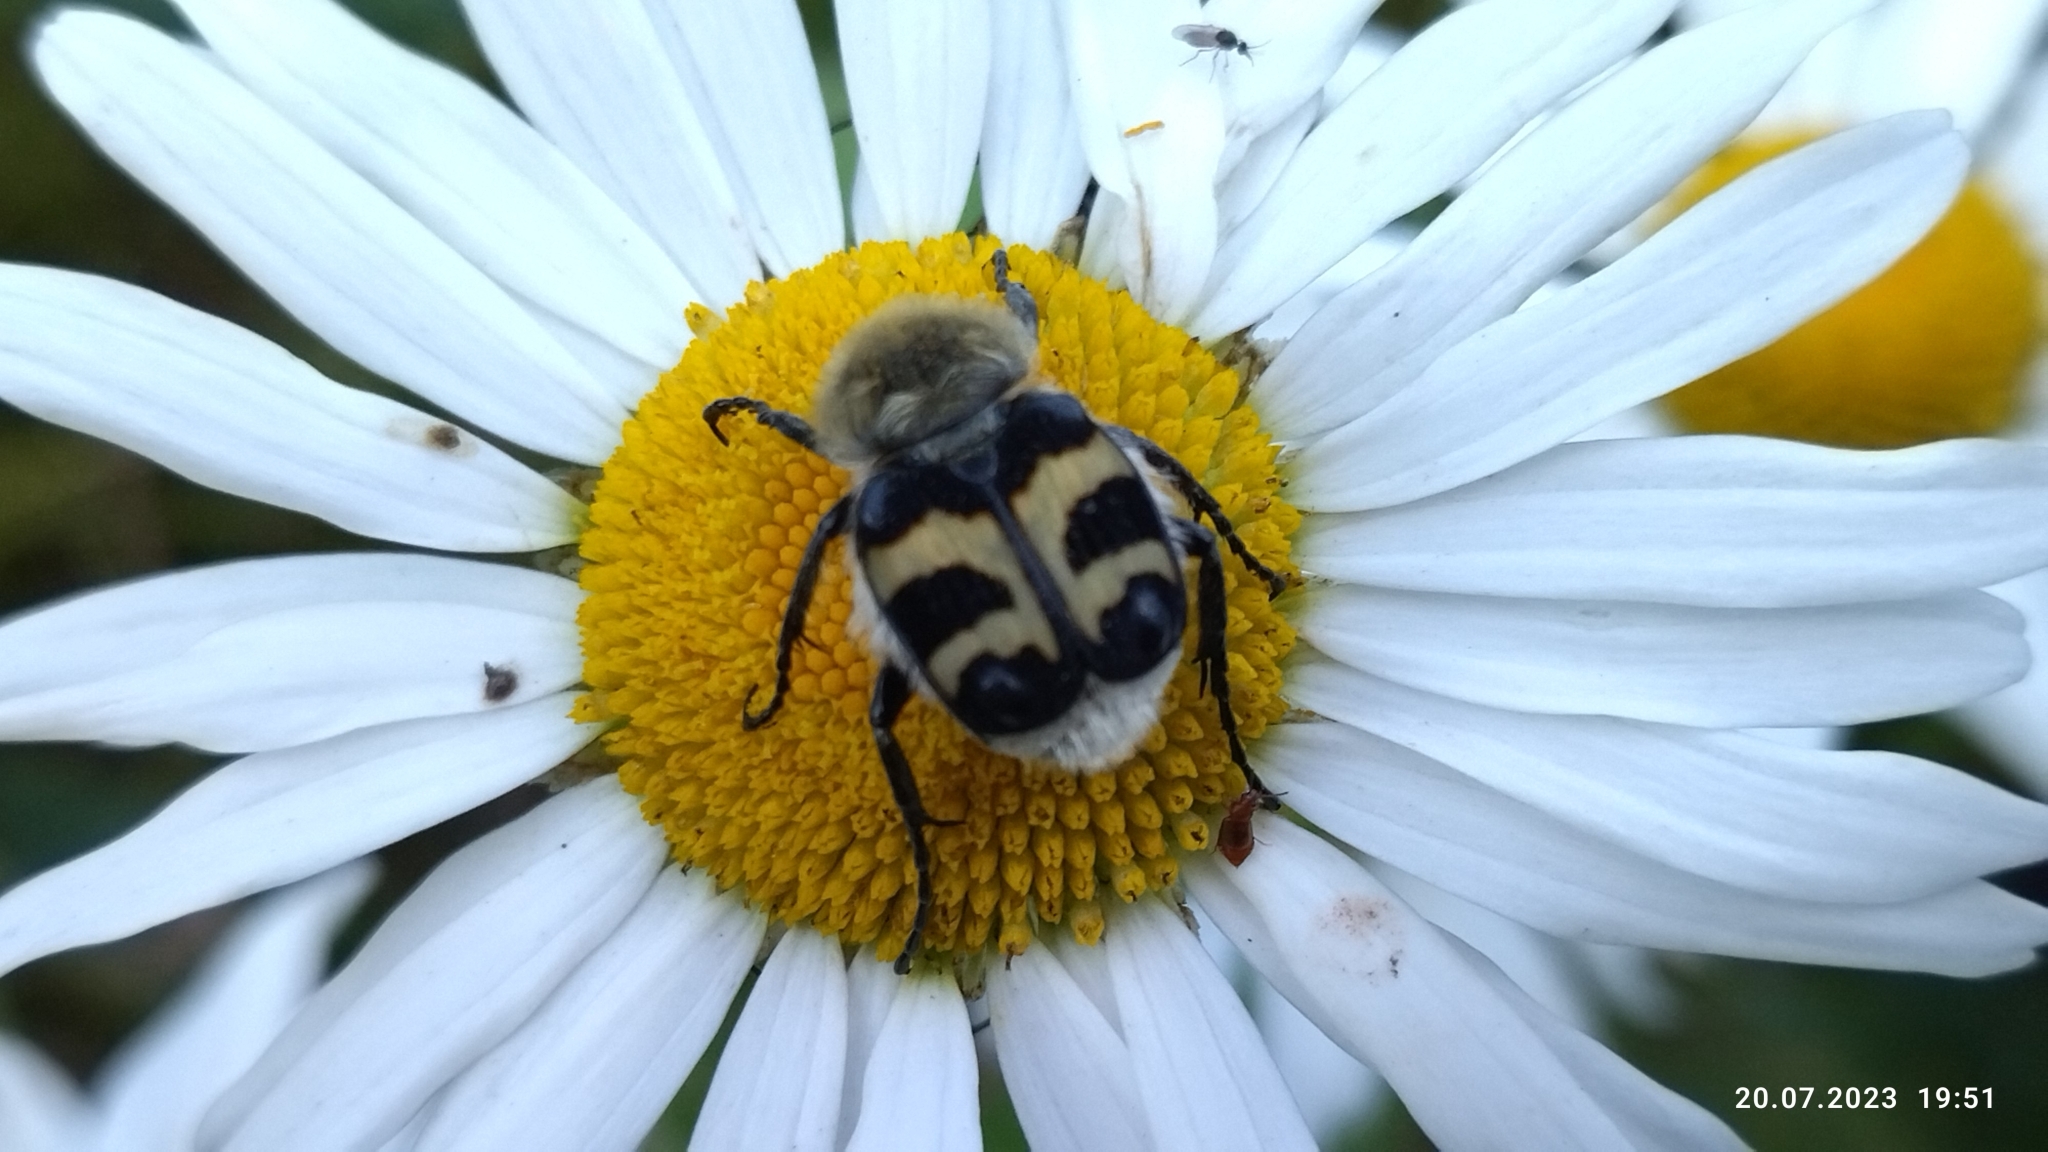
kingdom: Animalia
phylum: Arthropoda
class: Insecta
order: Coleoptera
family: Scarabaeidae
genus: Trichius
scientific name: Trichius fasciatus
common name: Bee beetle
